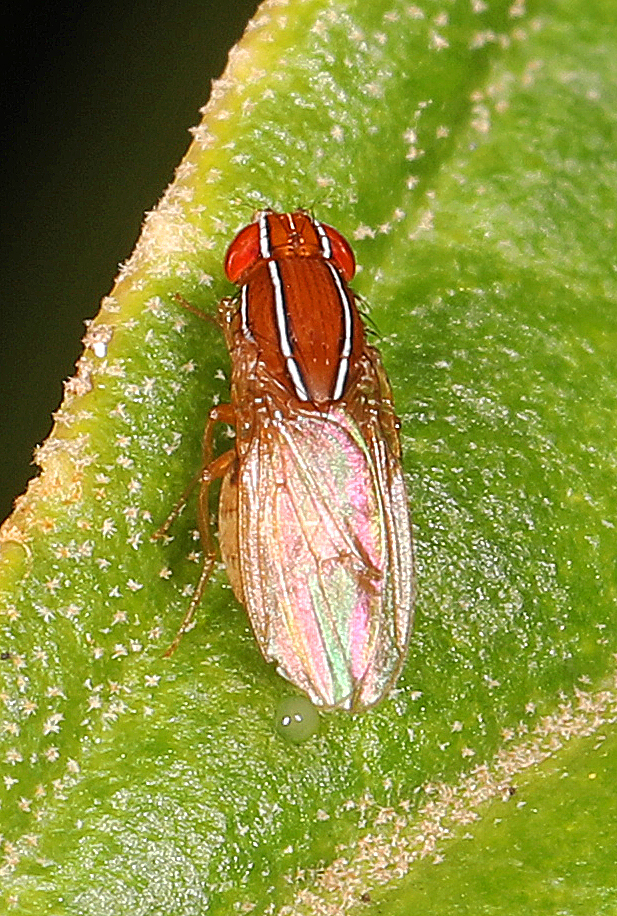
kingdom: Animalia
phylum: Arthropoda
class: Insecta
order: Diptera
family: Drosophilidae
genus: Zaprionus
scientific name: Zaprionus indianus
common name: African fig fly
